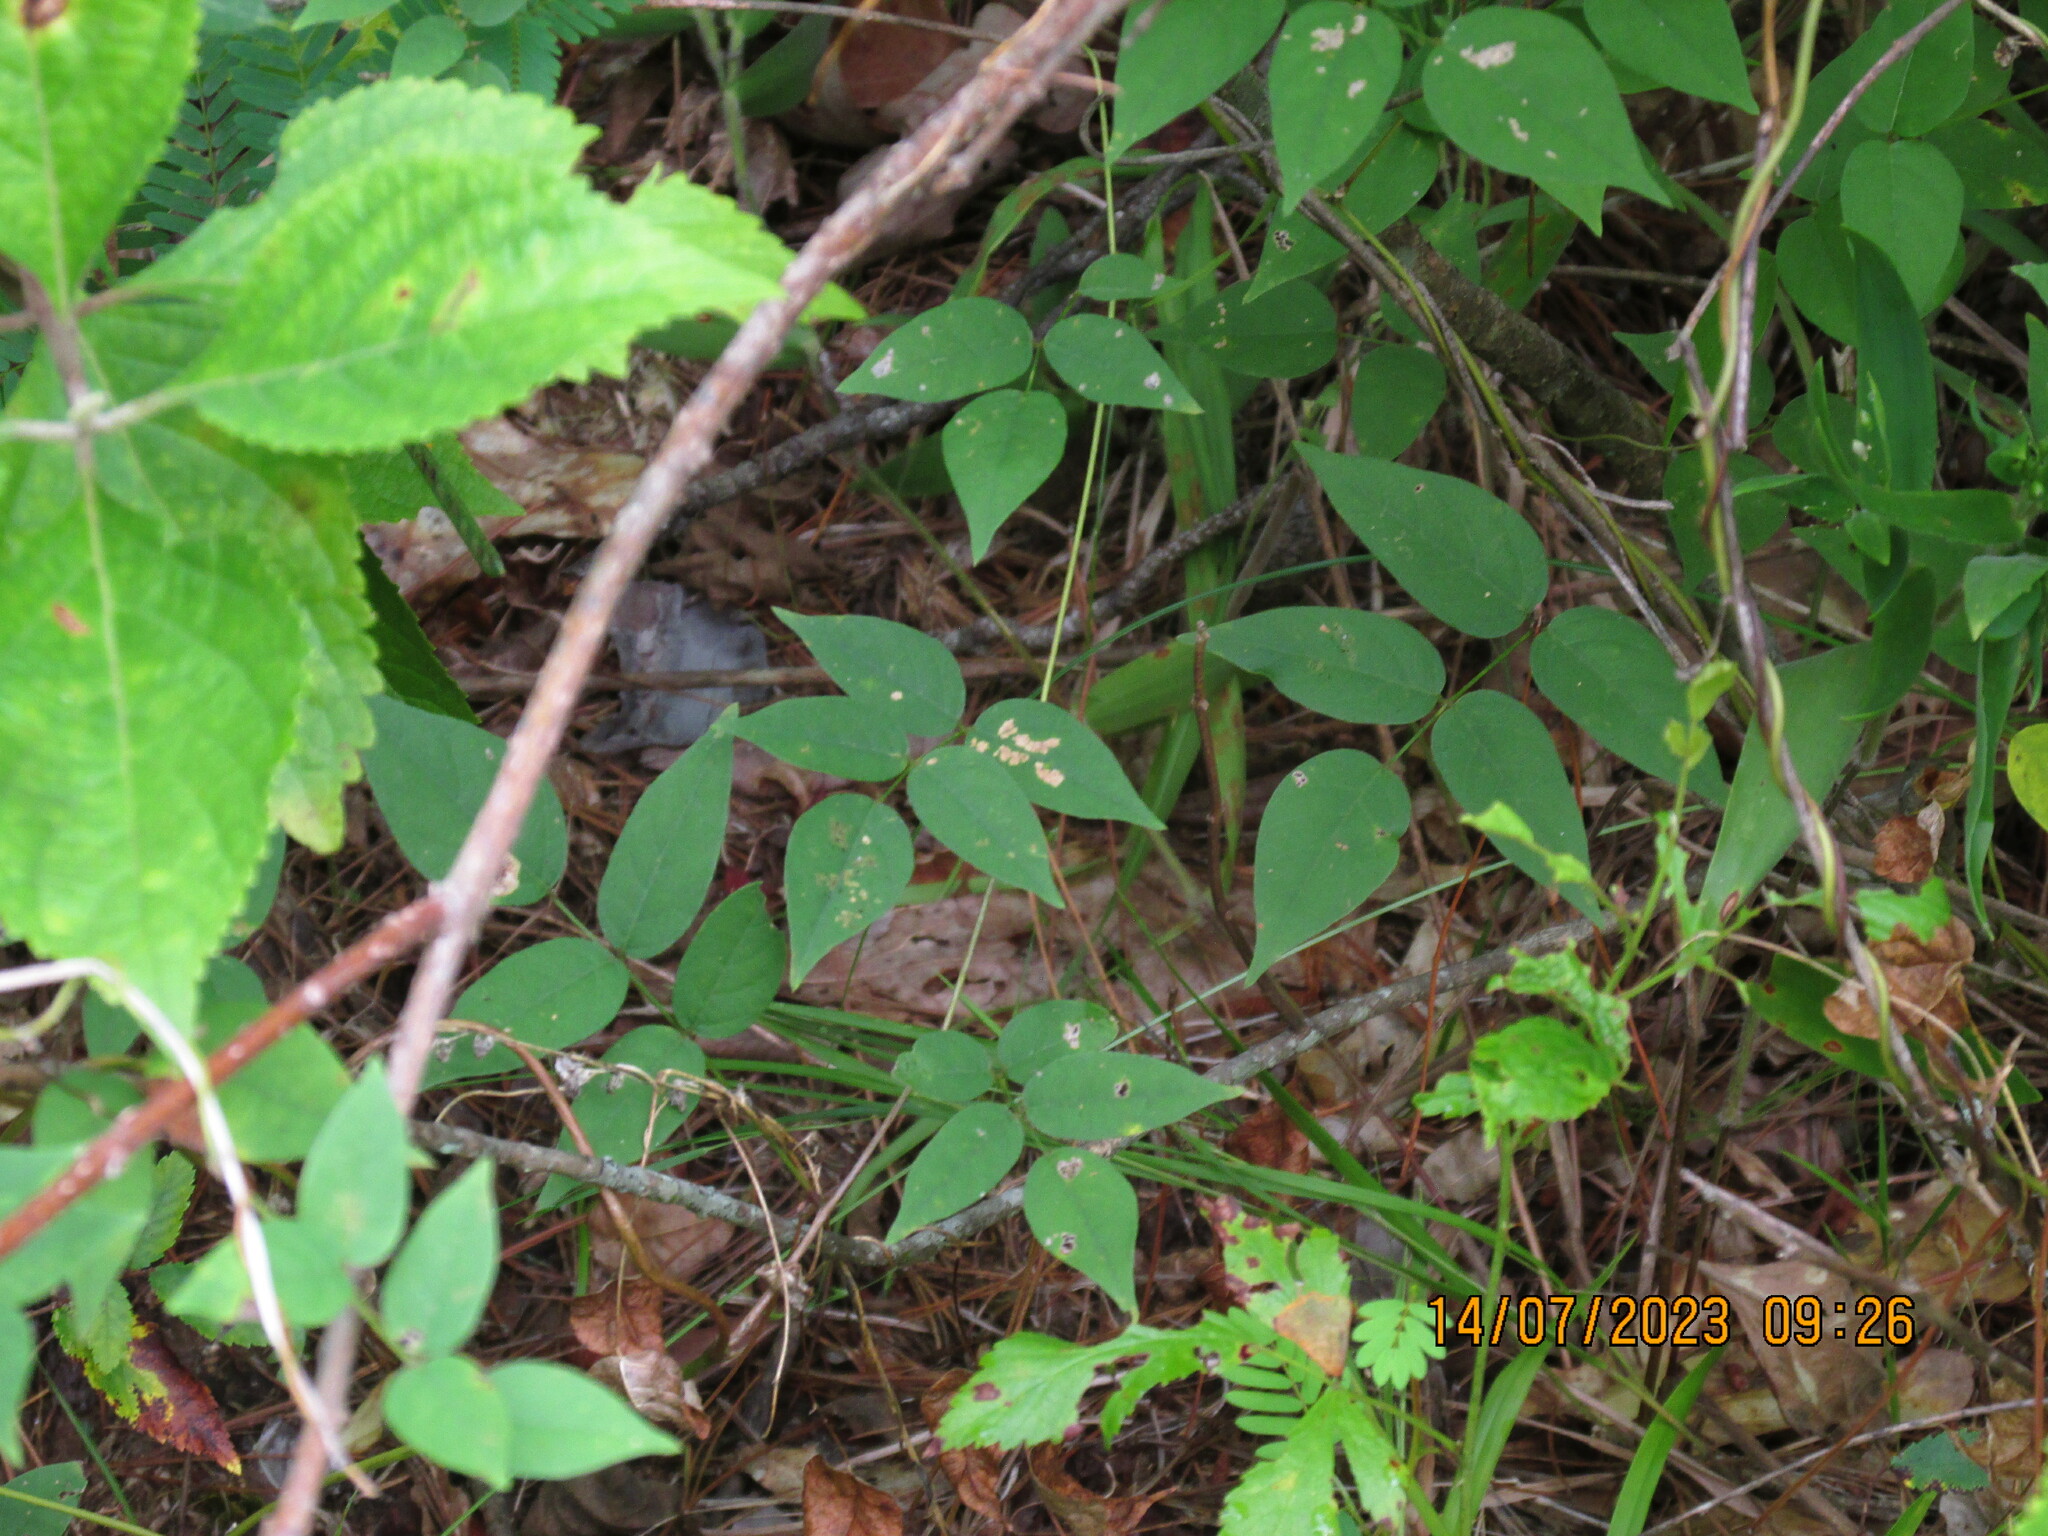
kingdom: Plantae
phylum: Tracheophyta
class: Magnoliopsida
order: Fabales
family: Fabaceae
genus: Apios
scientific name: Apios americana
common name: American potato-bean
